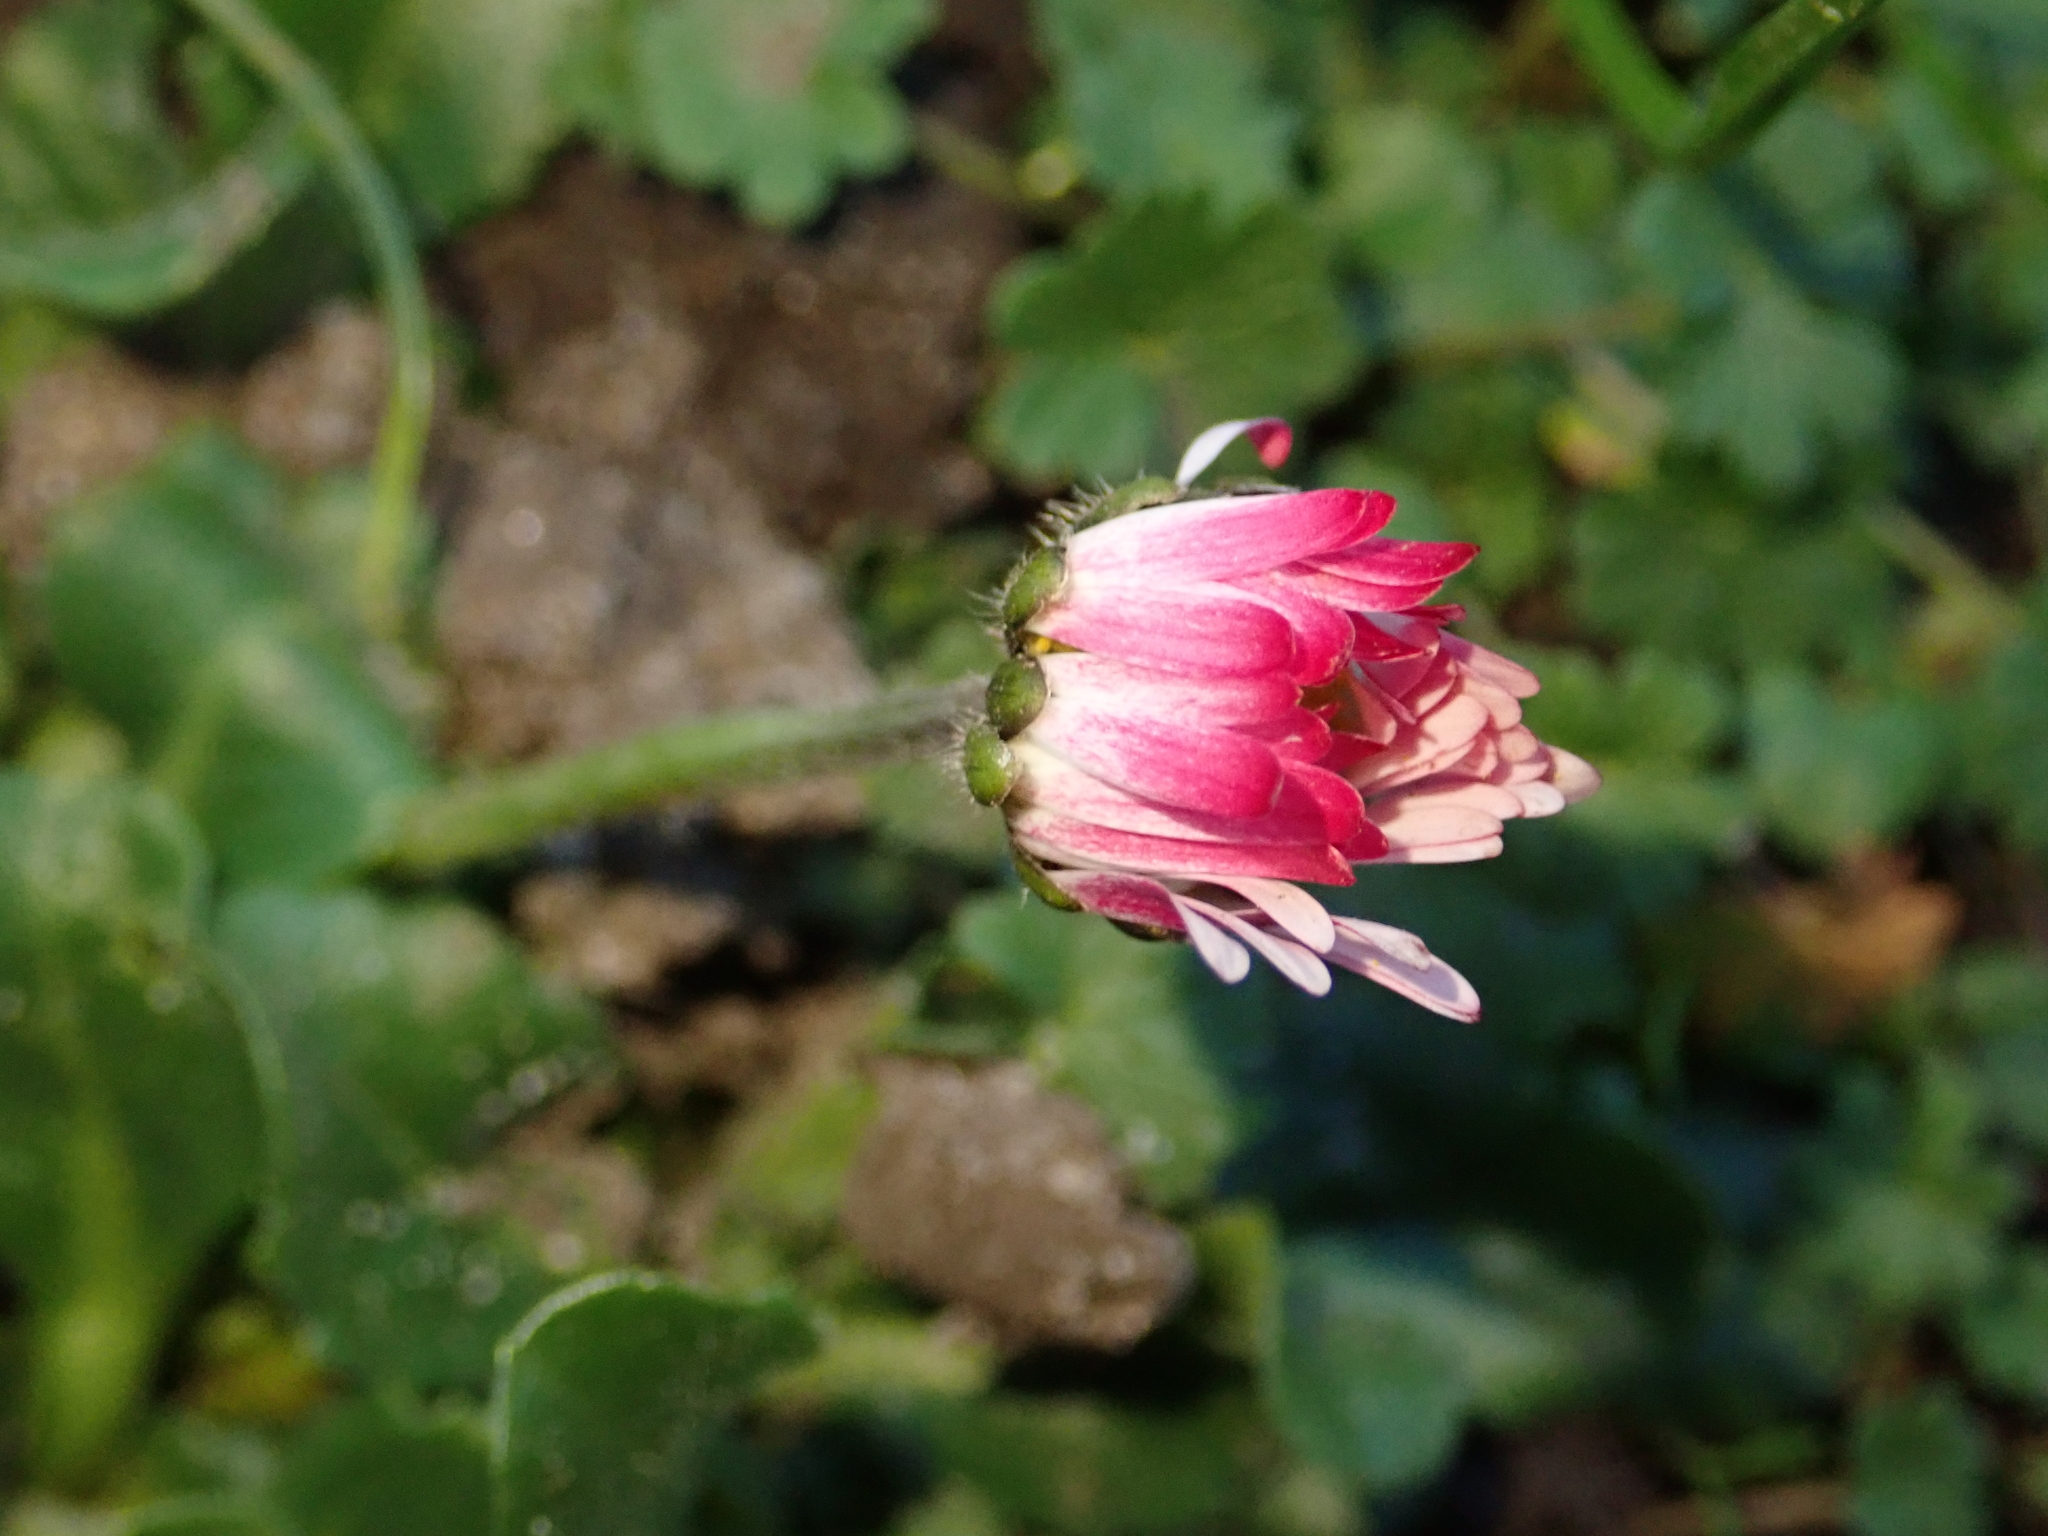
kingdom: Plantae
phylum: Tracheophyta
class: Magnoliopsida
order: Asterales
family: Asteraceae
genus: Bellis
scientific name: Bellis perennis
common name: Lawndaisy
